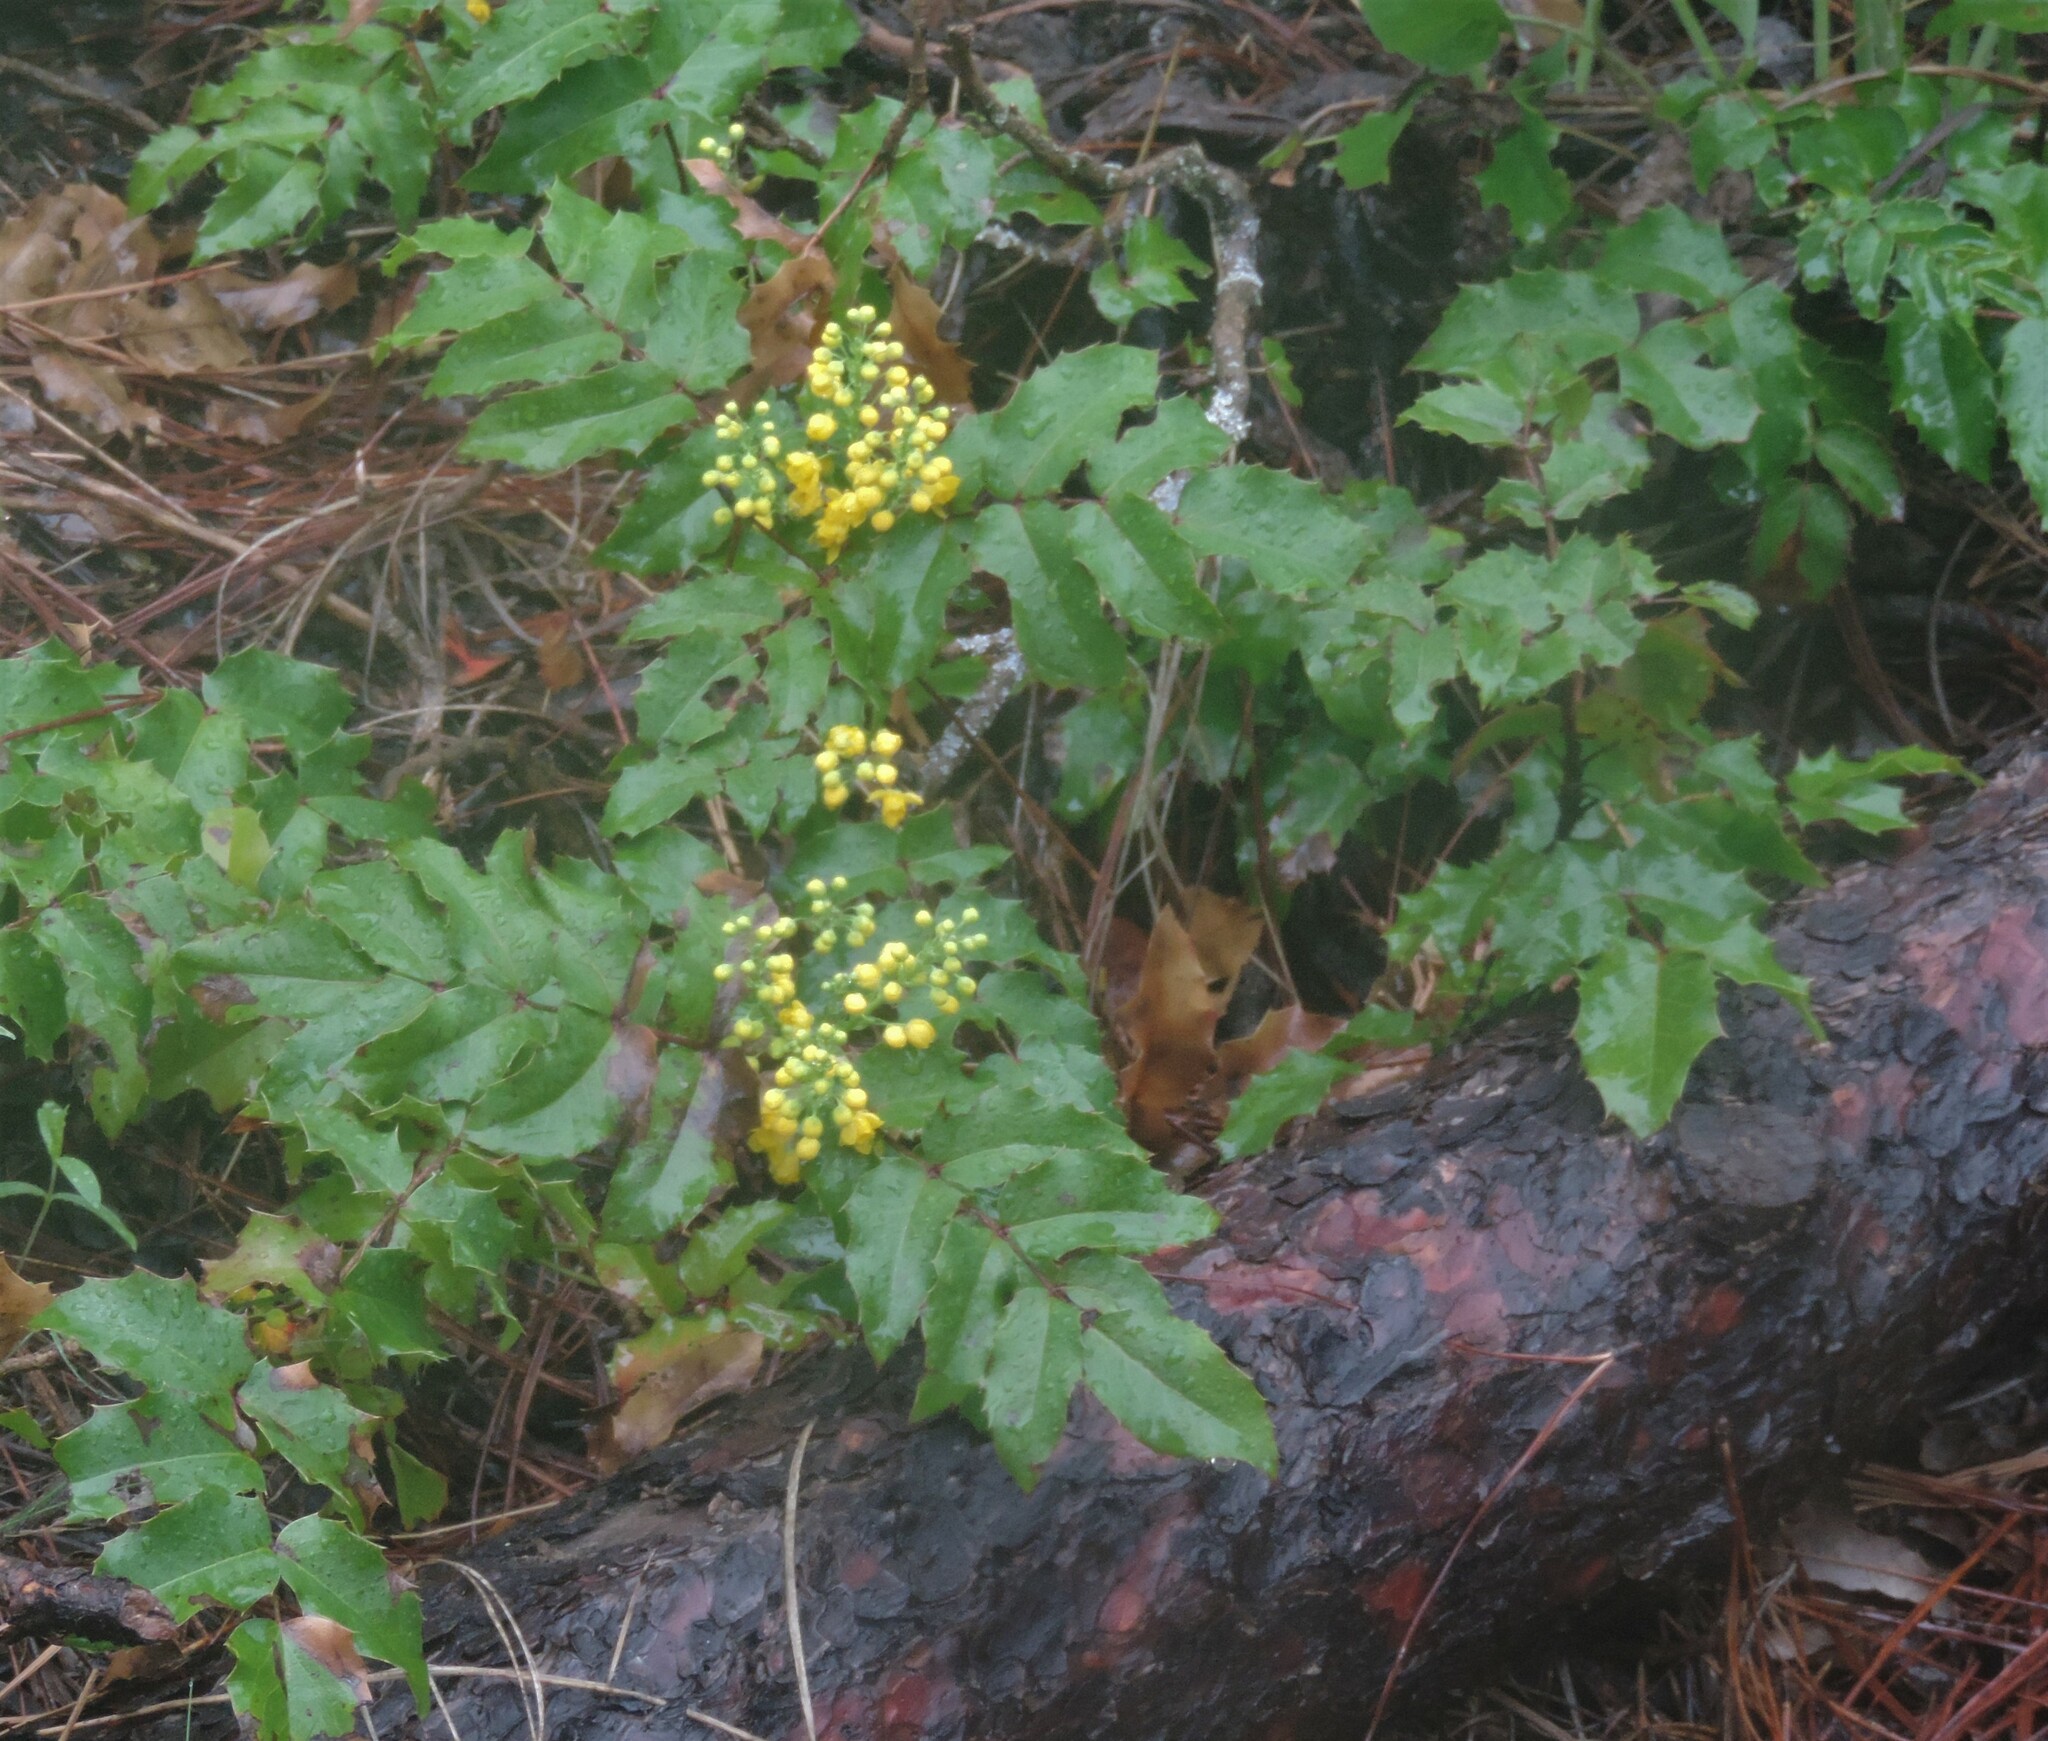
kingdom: Plantae
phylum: Tracheophyta
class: Magnoliopsida
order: Ranunculales
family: Berberidaceae
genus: Mahonia
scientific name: Mahonia aquifolium
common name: Oregon-grape
